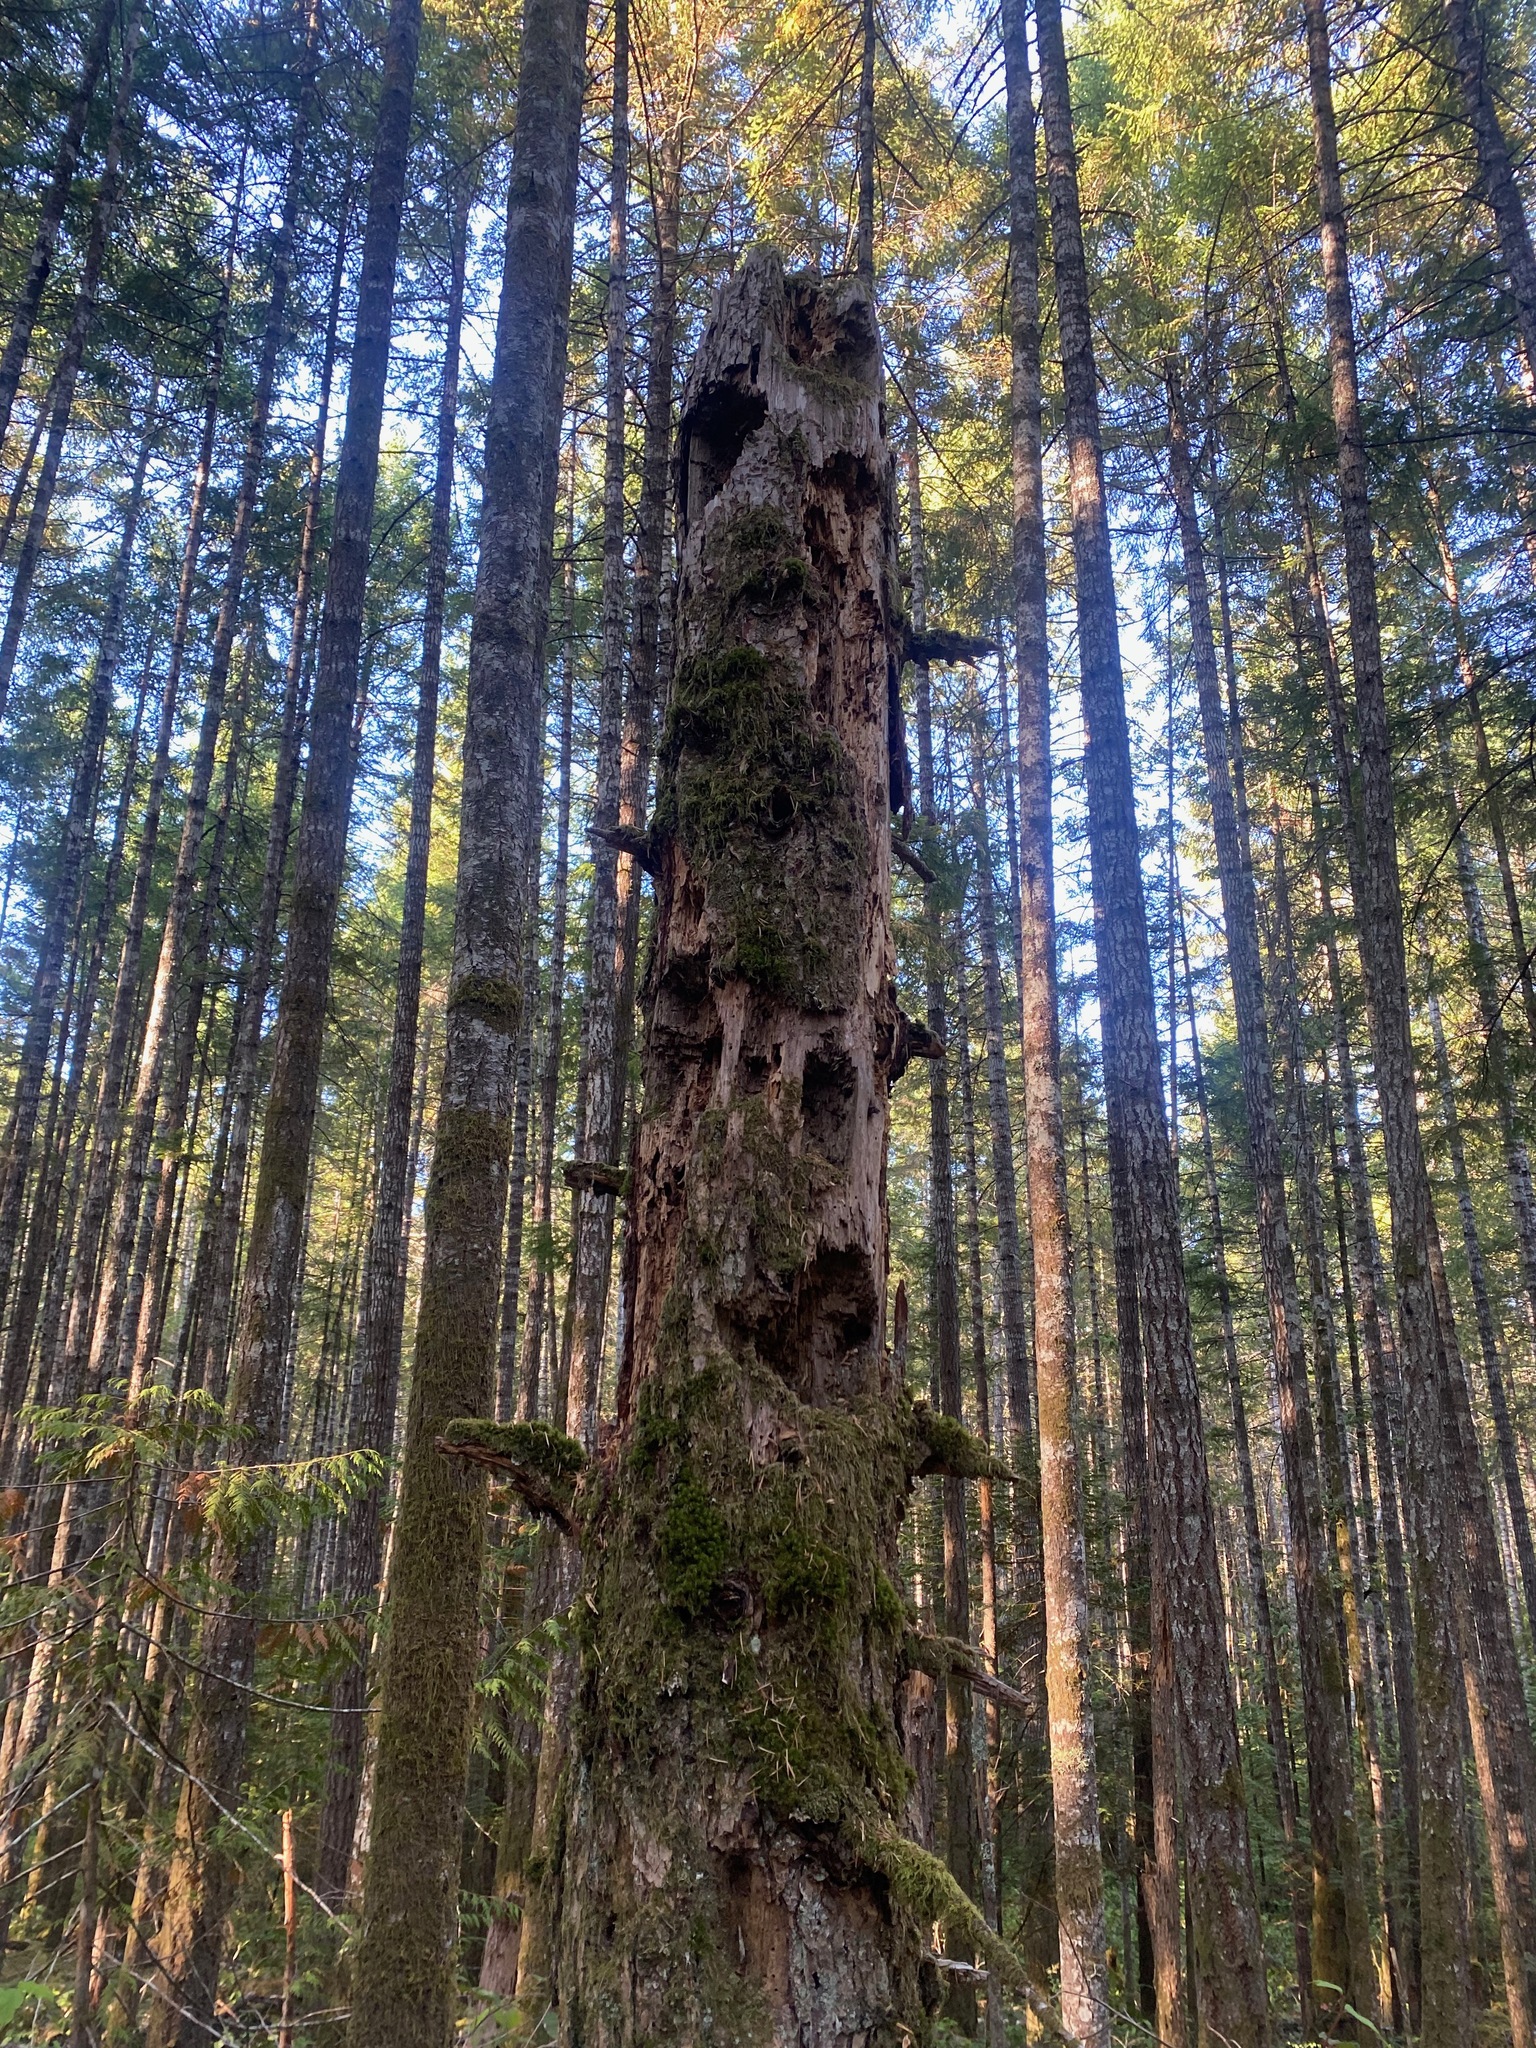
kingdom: Animalia
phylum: Chordata
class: Aves
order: Piciformes
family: Picidae
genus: Dryocopus
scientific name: Dryocopus pileatus
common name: Pileated woodpecker
